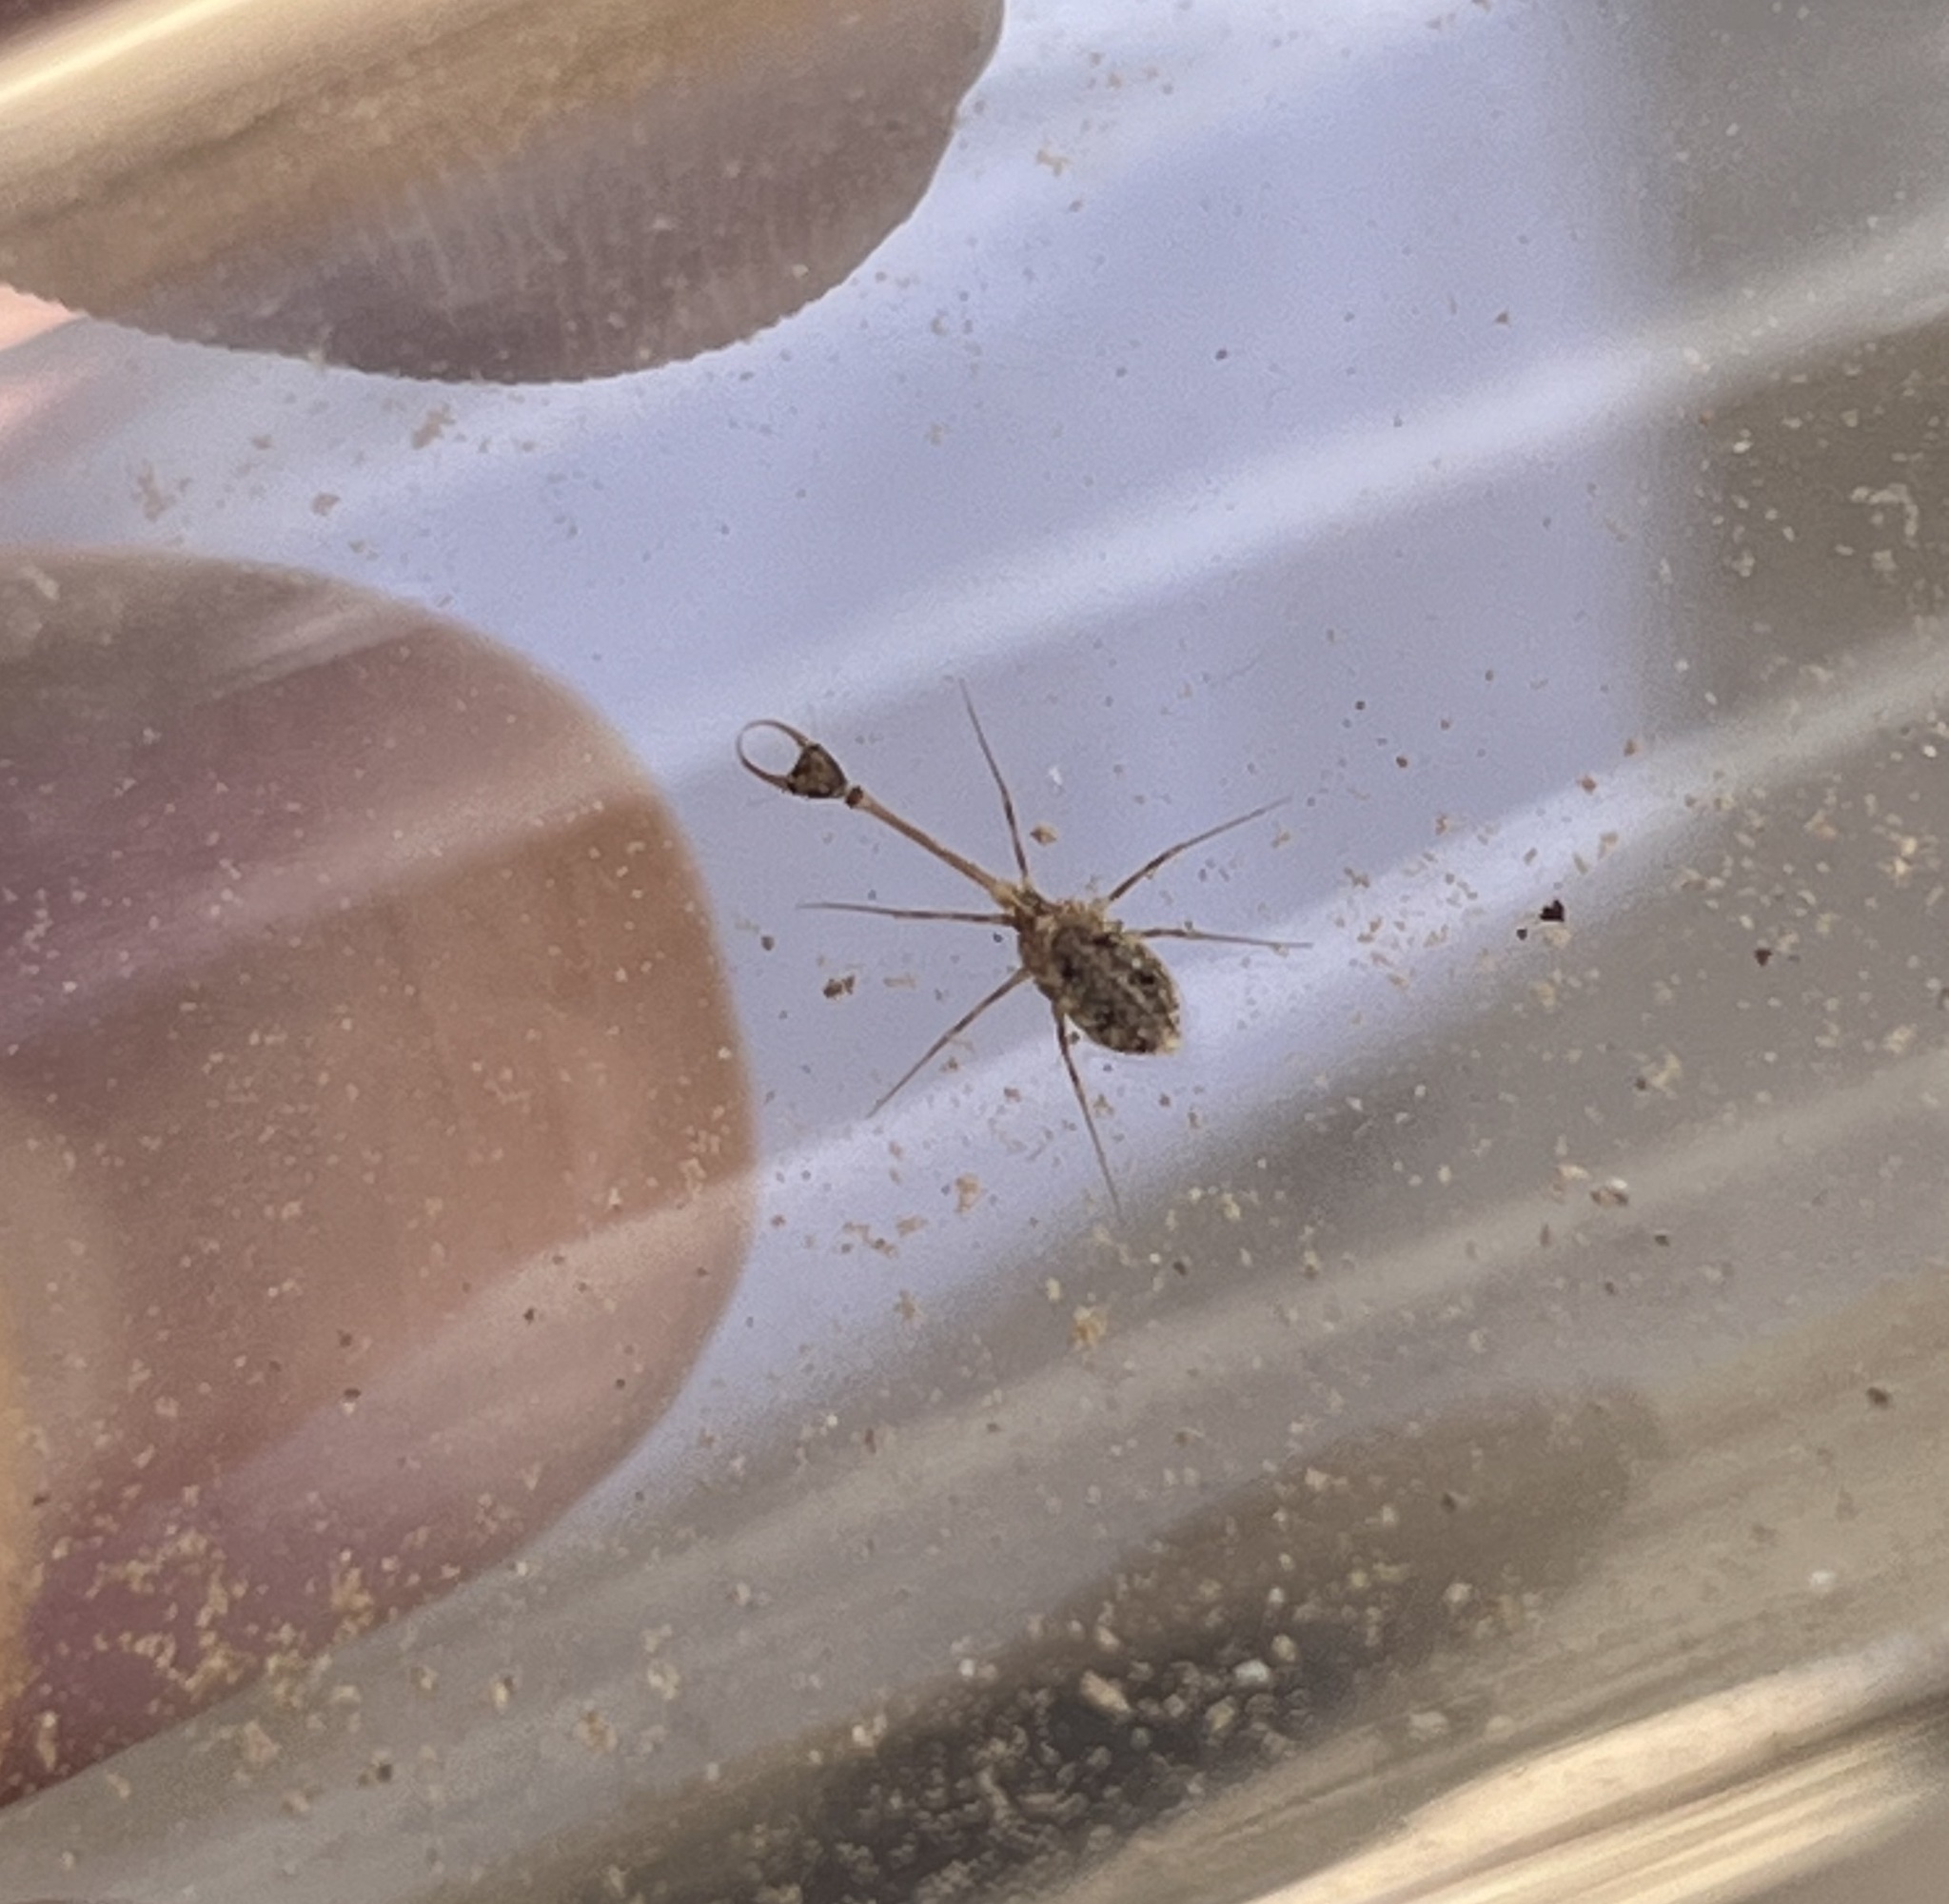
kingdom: Animalia
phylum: Arthropoda
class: Insecta
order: Neuroptera
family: Nemopteridae
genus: Dielocroce
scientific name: Dielocroce hebraea
